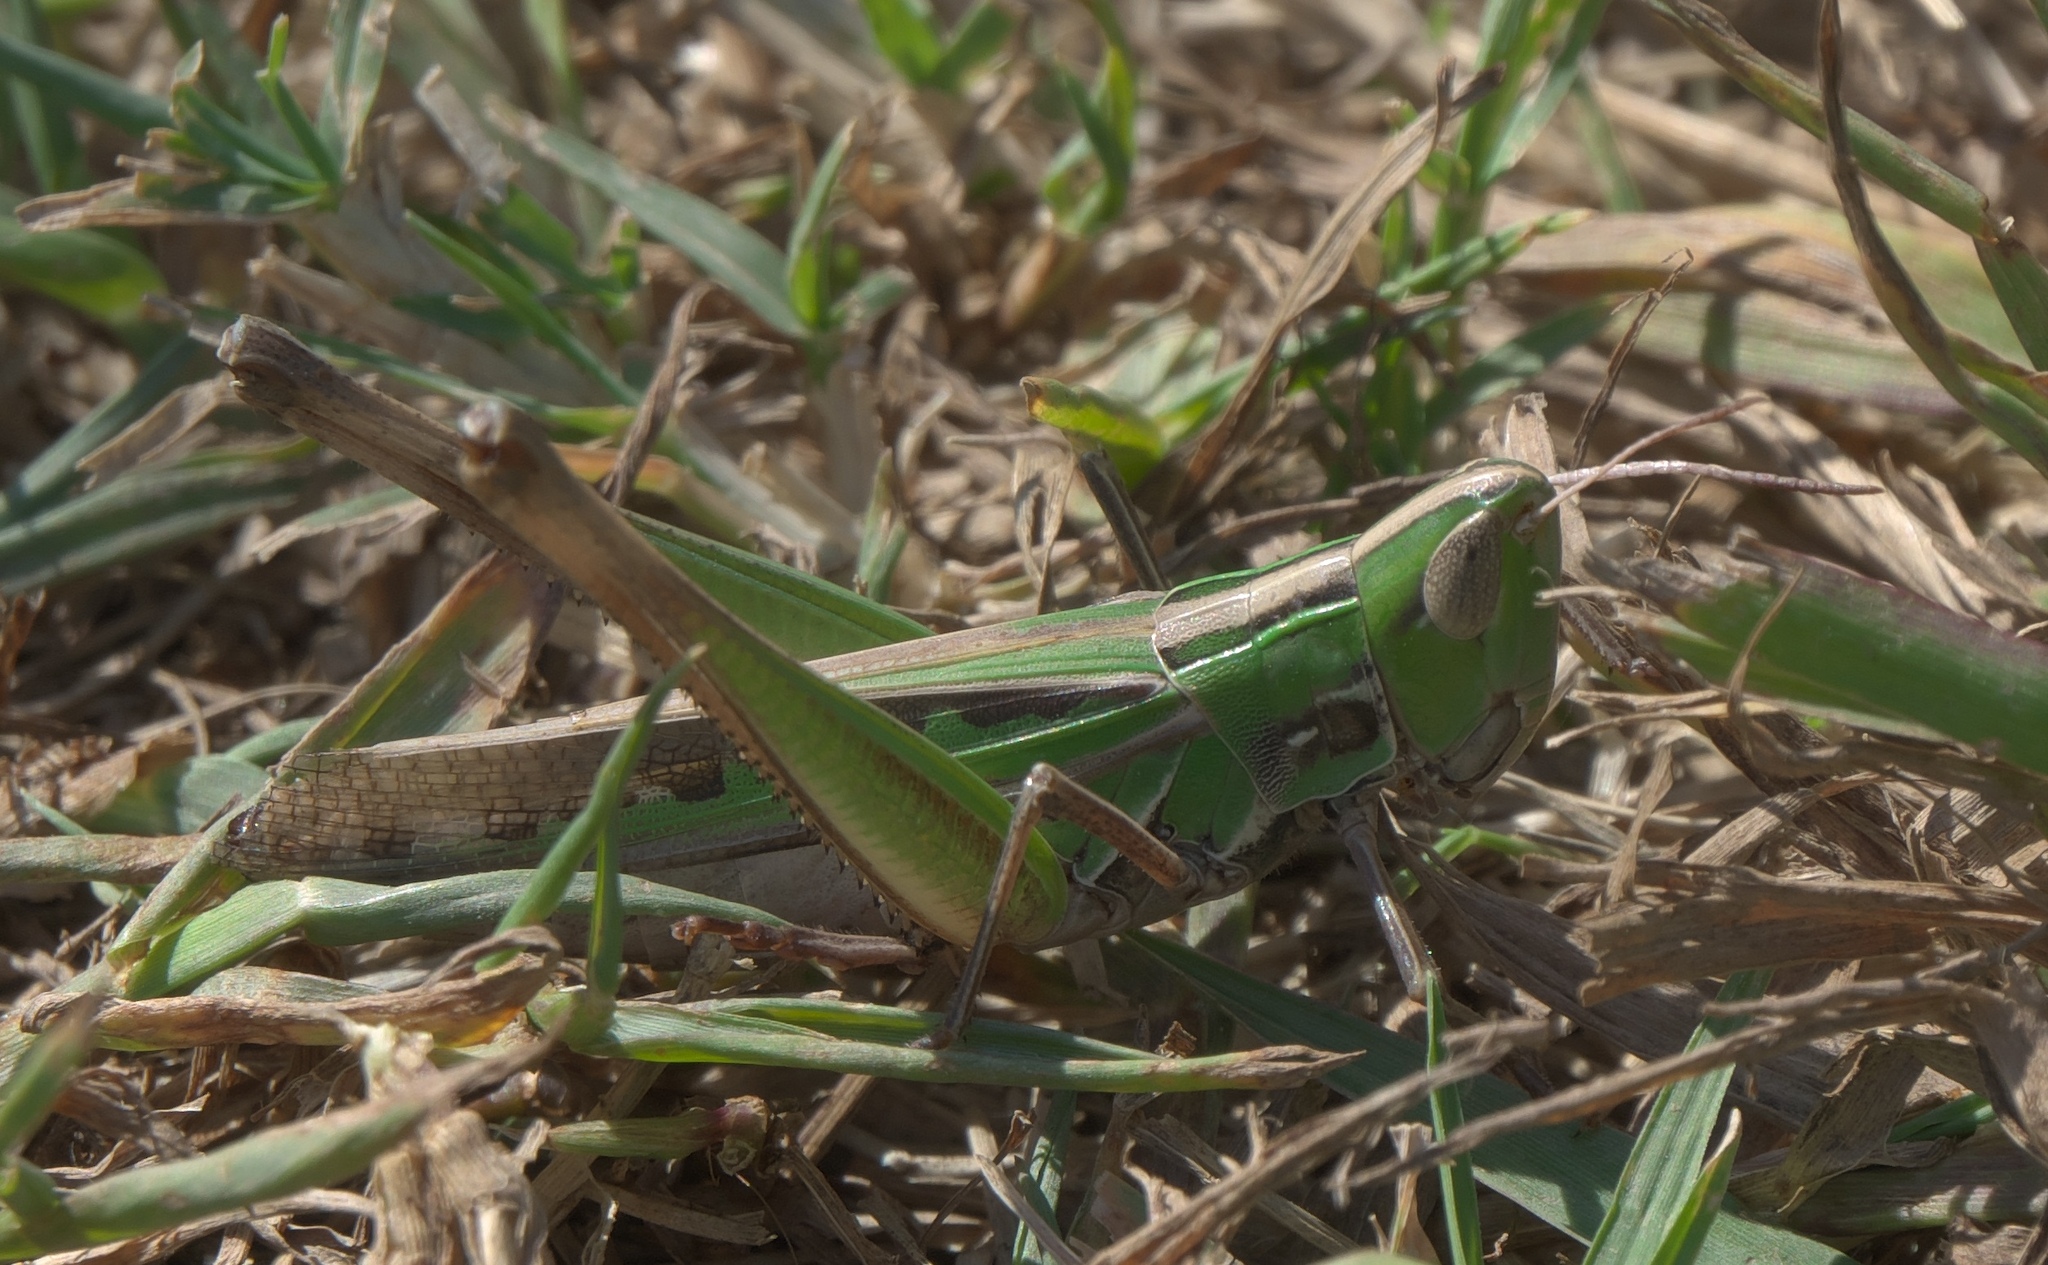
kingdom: Animalia
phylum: Arthropoda
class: Insecta
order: Orthoptera
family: Acrididae
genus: Syrbula
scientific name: Syrbula admirabilis
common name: Handsome grasshopper
